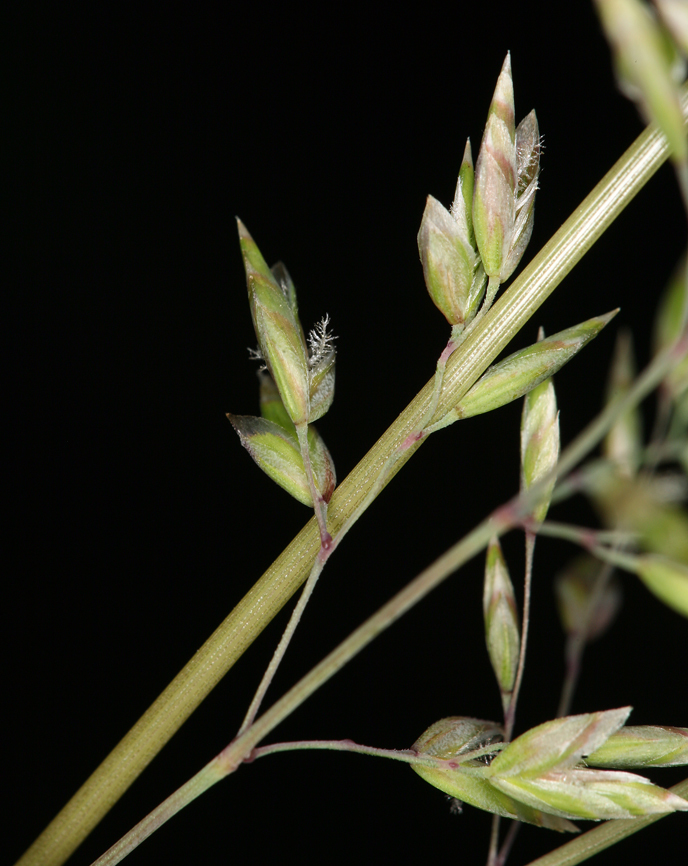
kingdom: Plantae
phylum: Tracheophyta
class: Liliopsida
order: Poales
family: Poaceae
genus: Poa
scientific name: Poa wheeleri
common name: Wheeler's bluegrass
